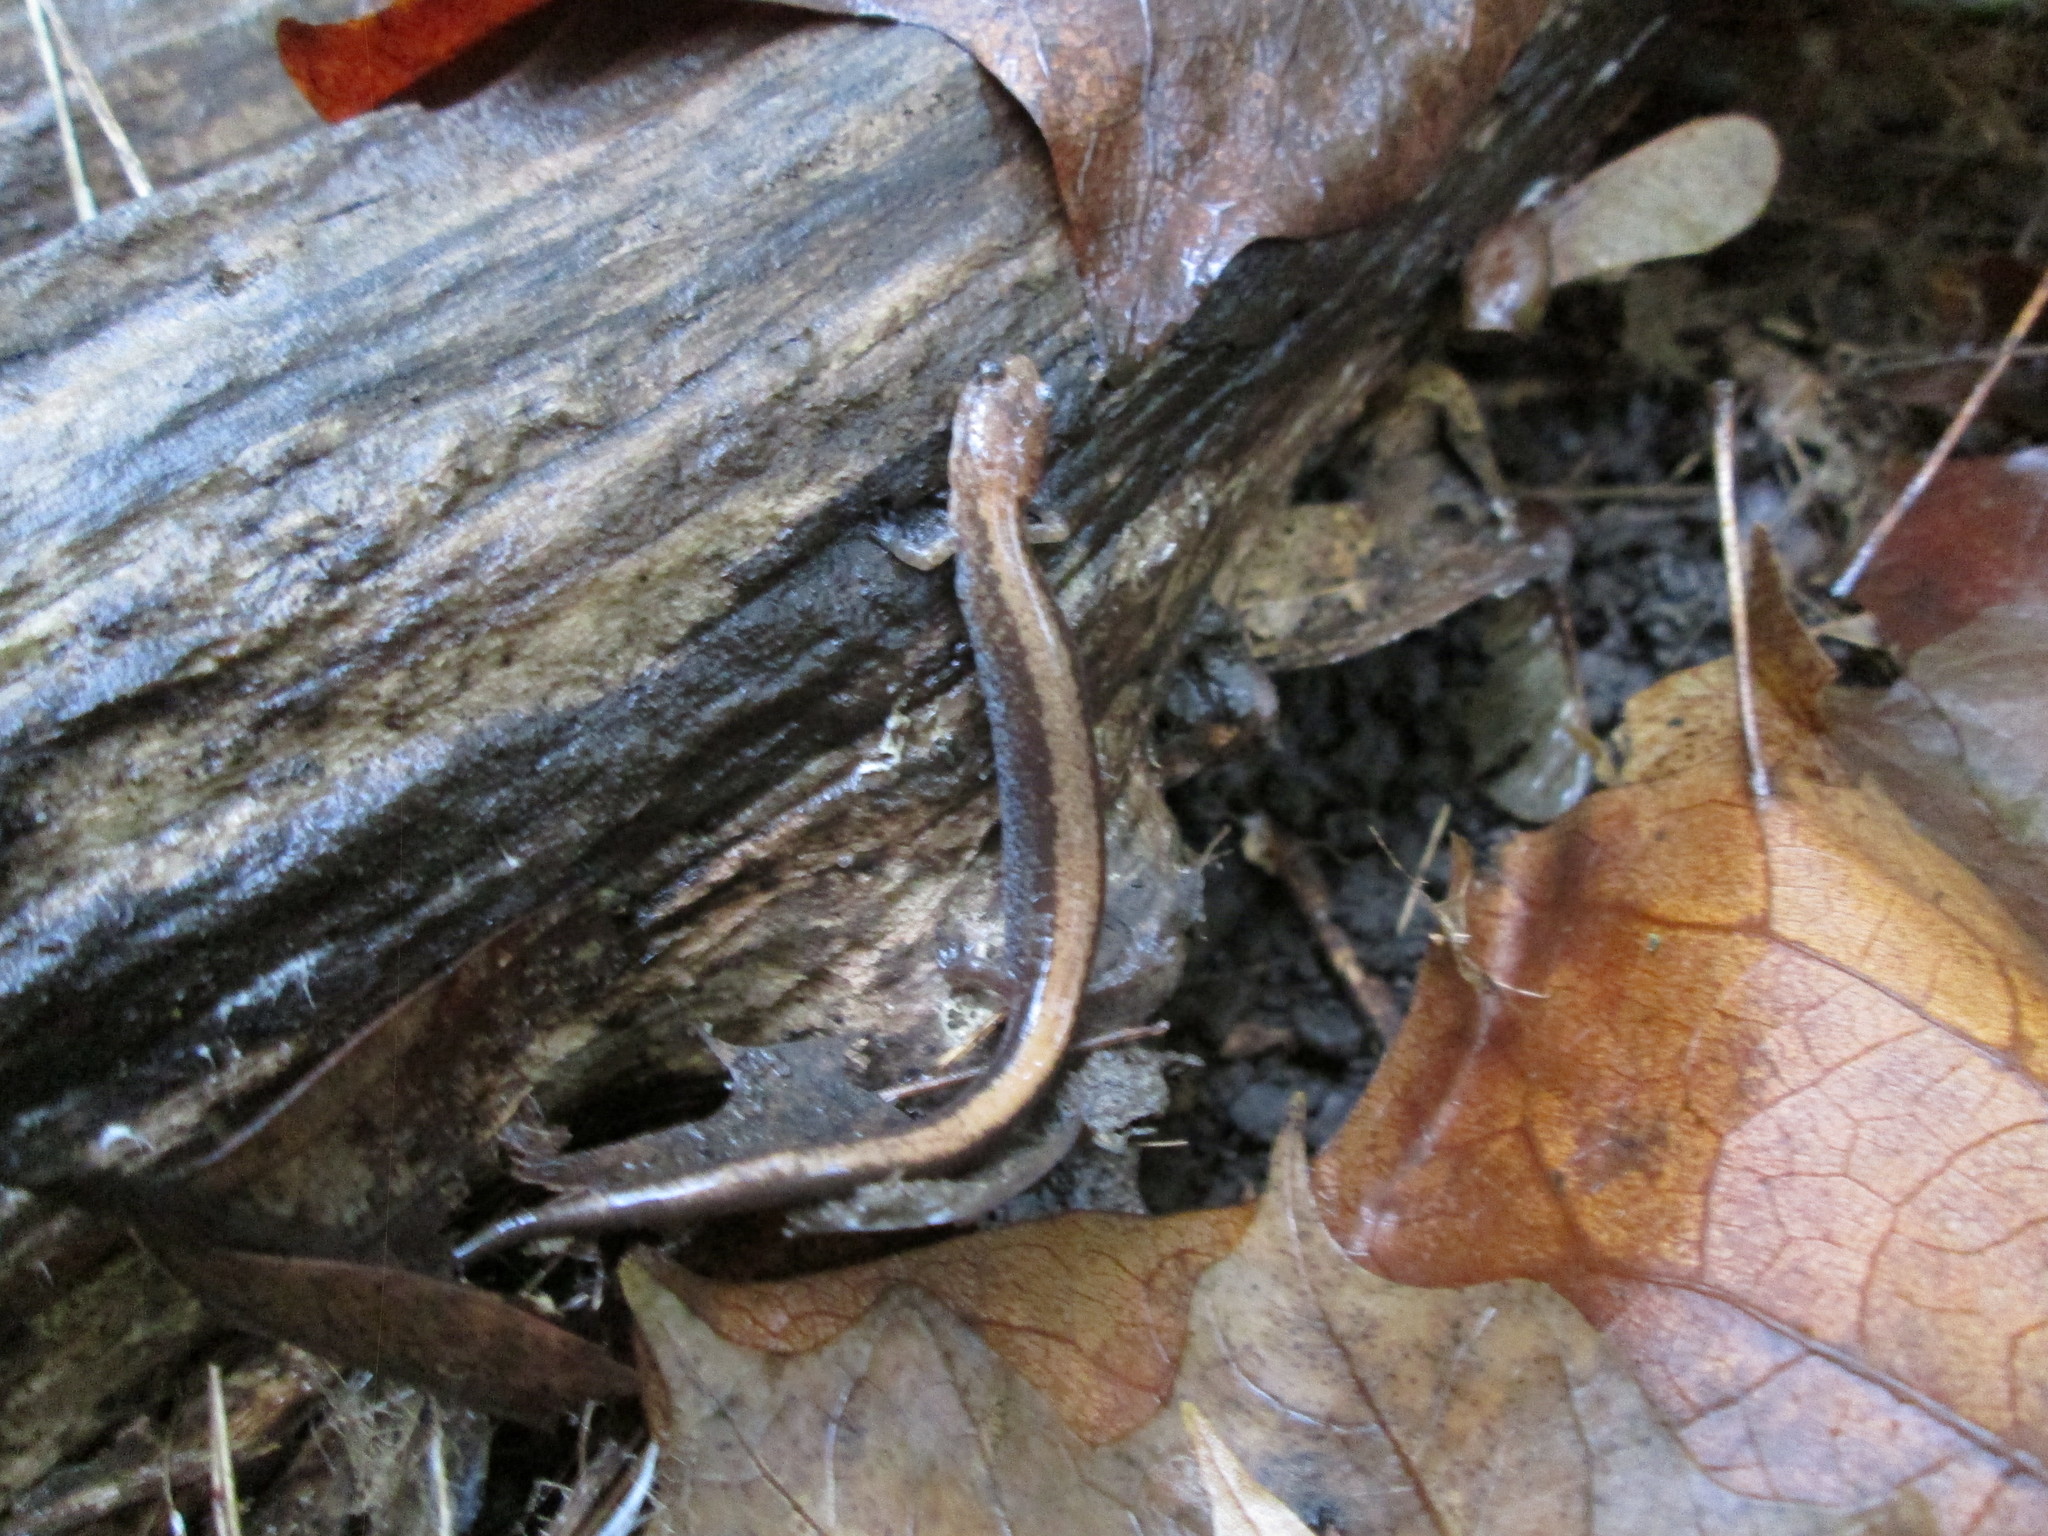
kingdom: Animalia
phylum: Chordata
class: Amphibia
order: Caudata
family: Plethodontidae
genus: Plethodon
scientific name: Plethodon cinereus
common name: Redback salamander
